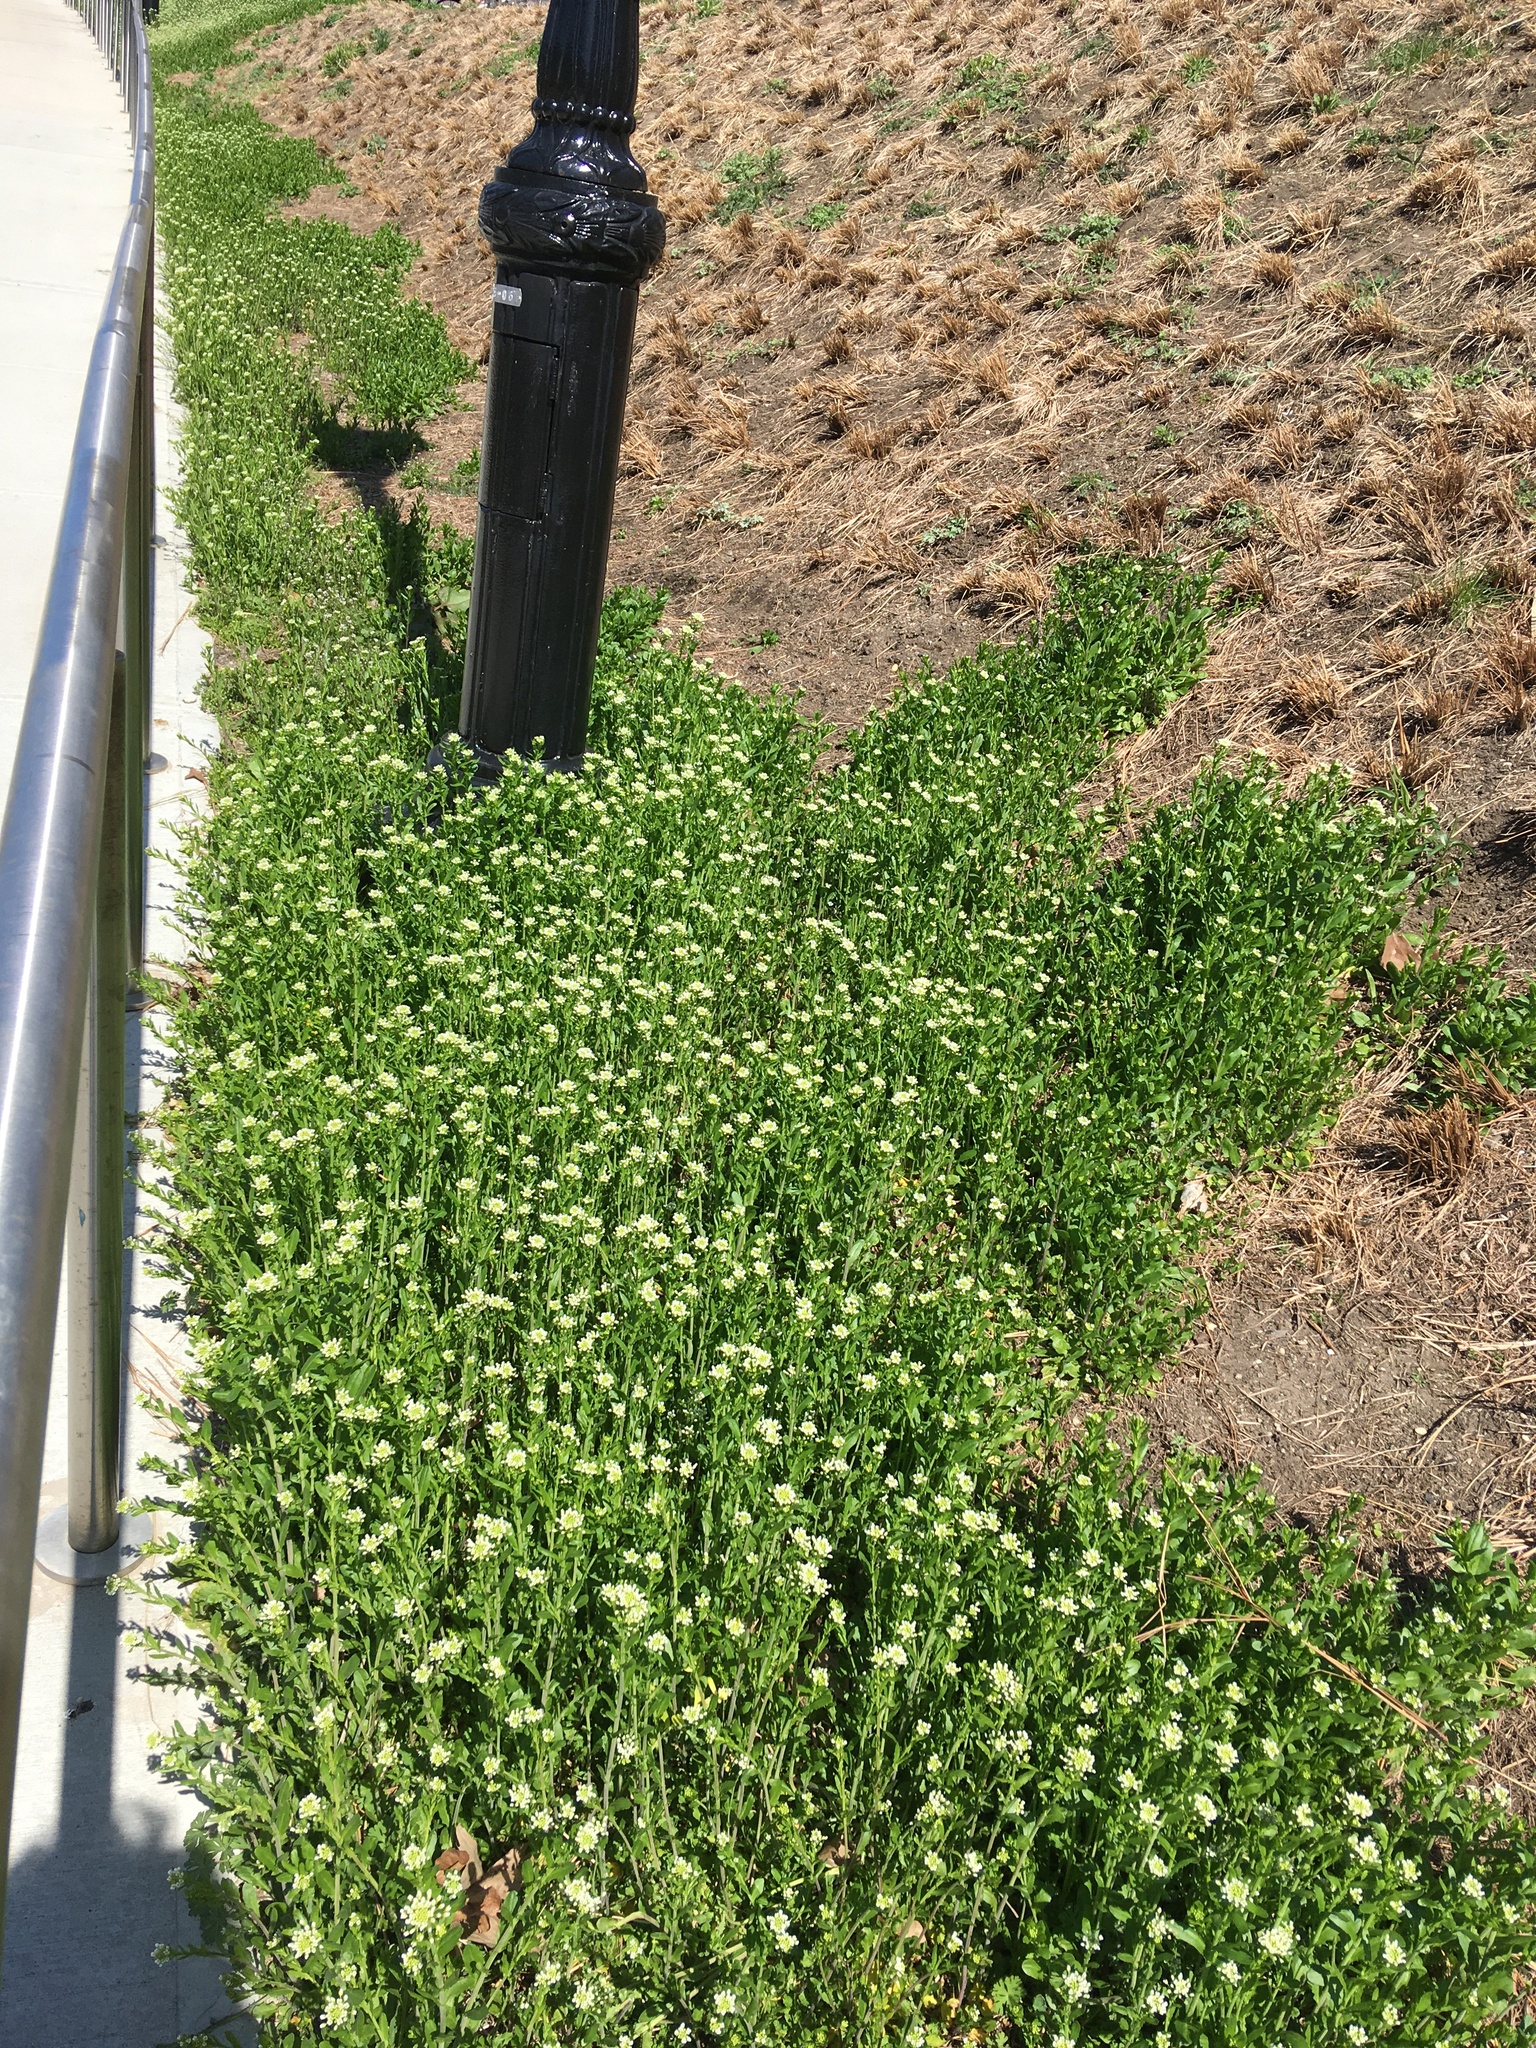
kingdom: Plantae
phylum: Tracheophyta
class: Magnoliopsida
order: Brassicales
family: Brassicaceae
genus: Mummenhoffia
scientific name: Mummenhoffia alliacea
